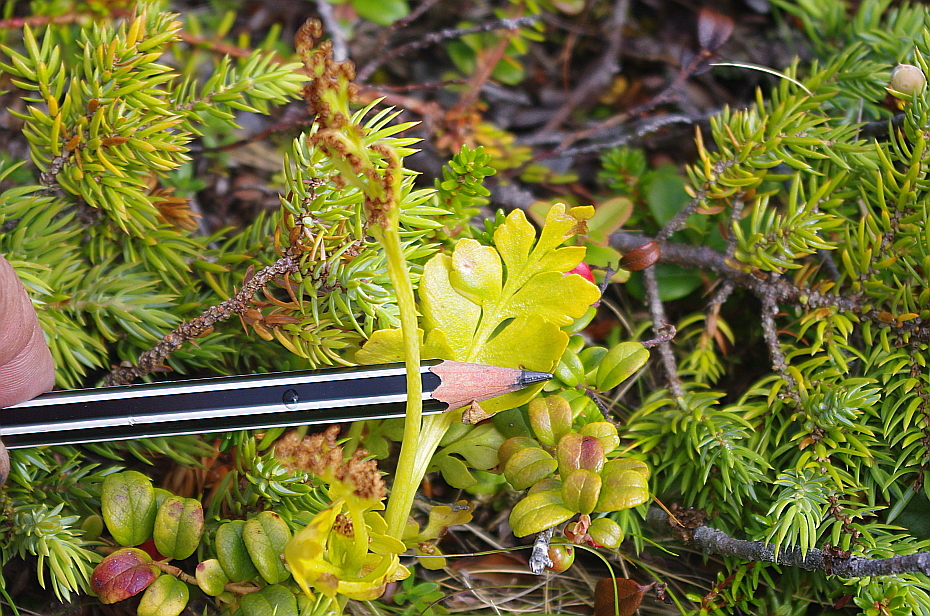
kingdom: Plantae
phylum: Tracheophyta
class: Polypodiopsida
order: Ophioglossales
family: Ophioglossaceae
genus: Botrychium
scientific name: Botrychium boreale
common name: Boreal moonwort
